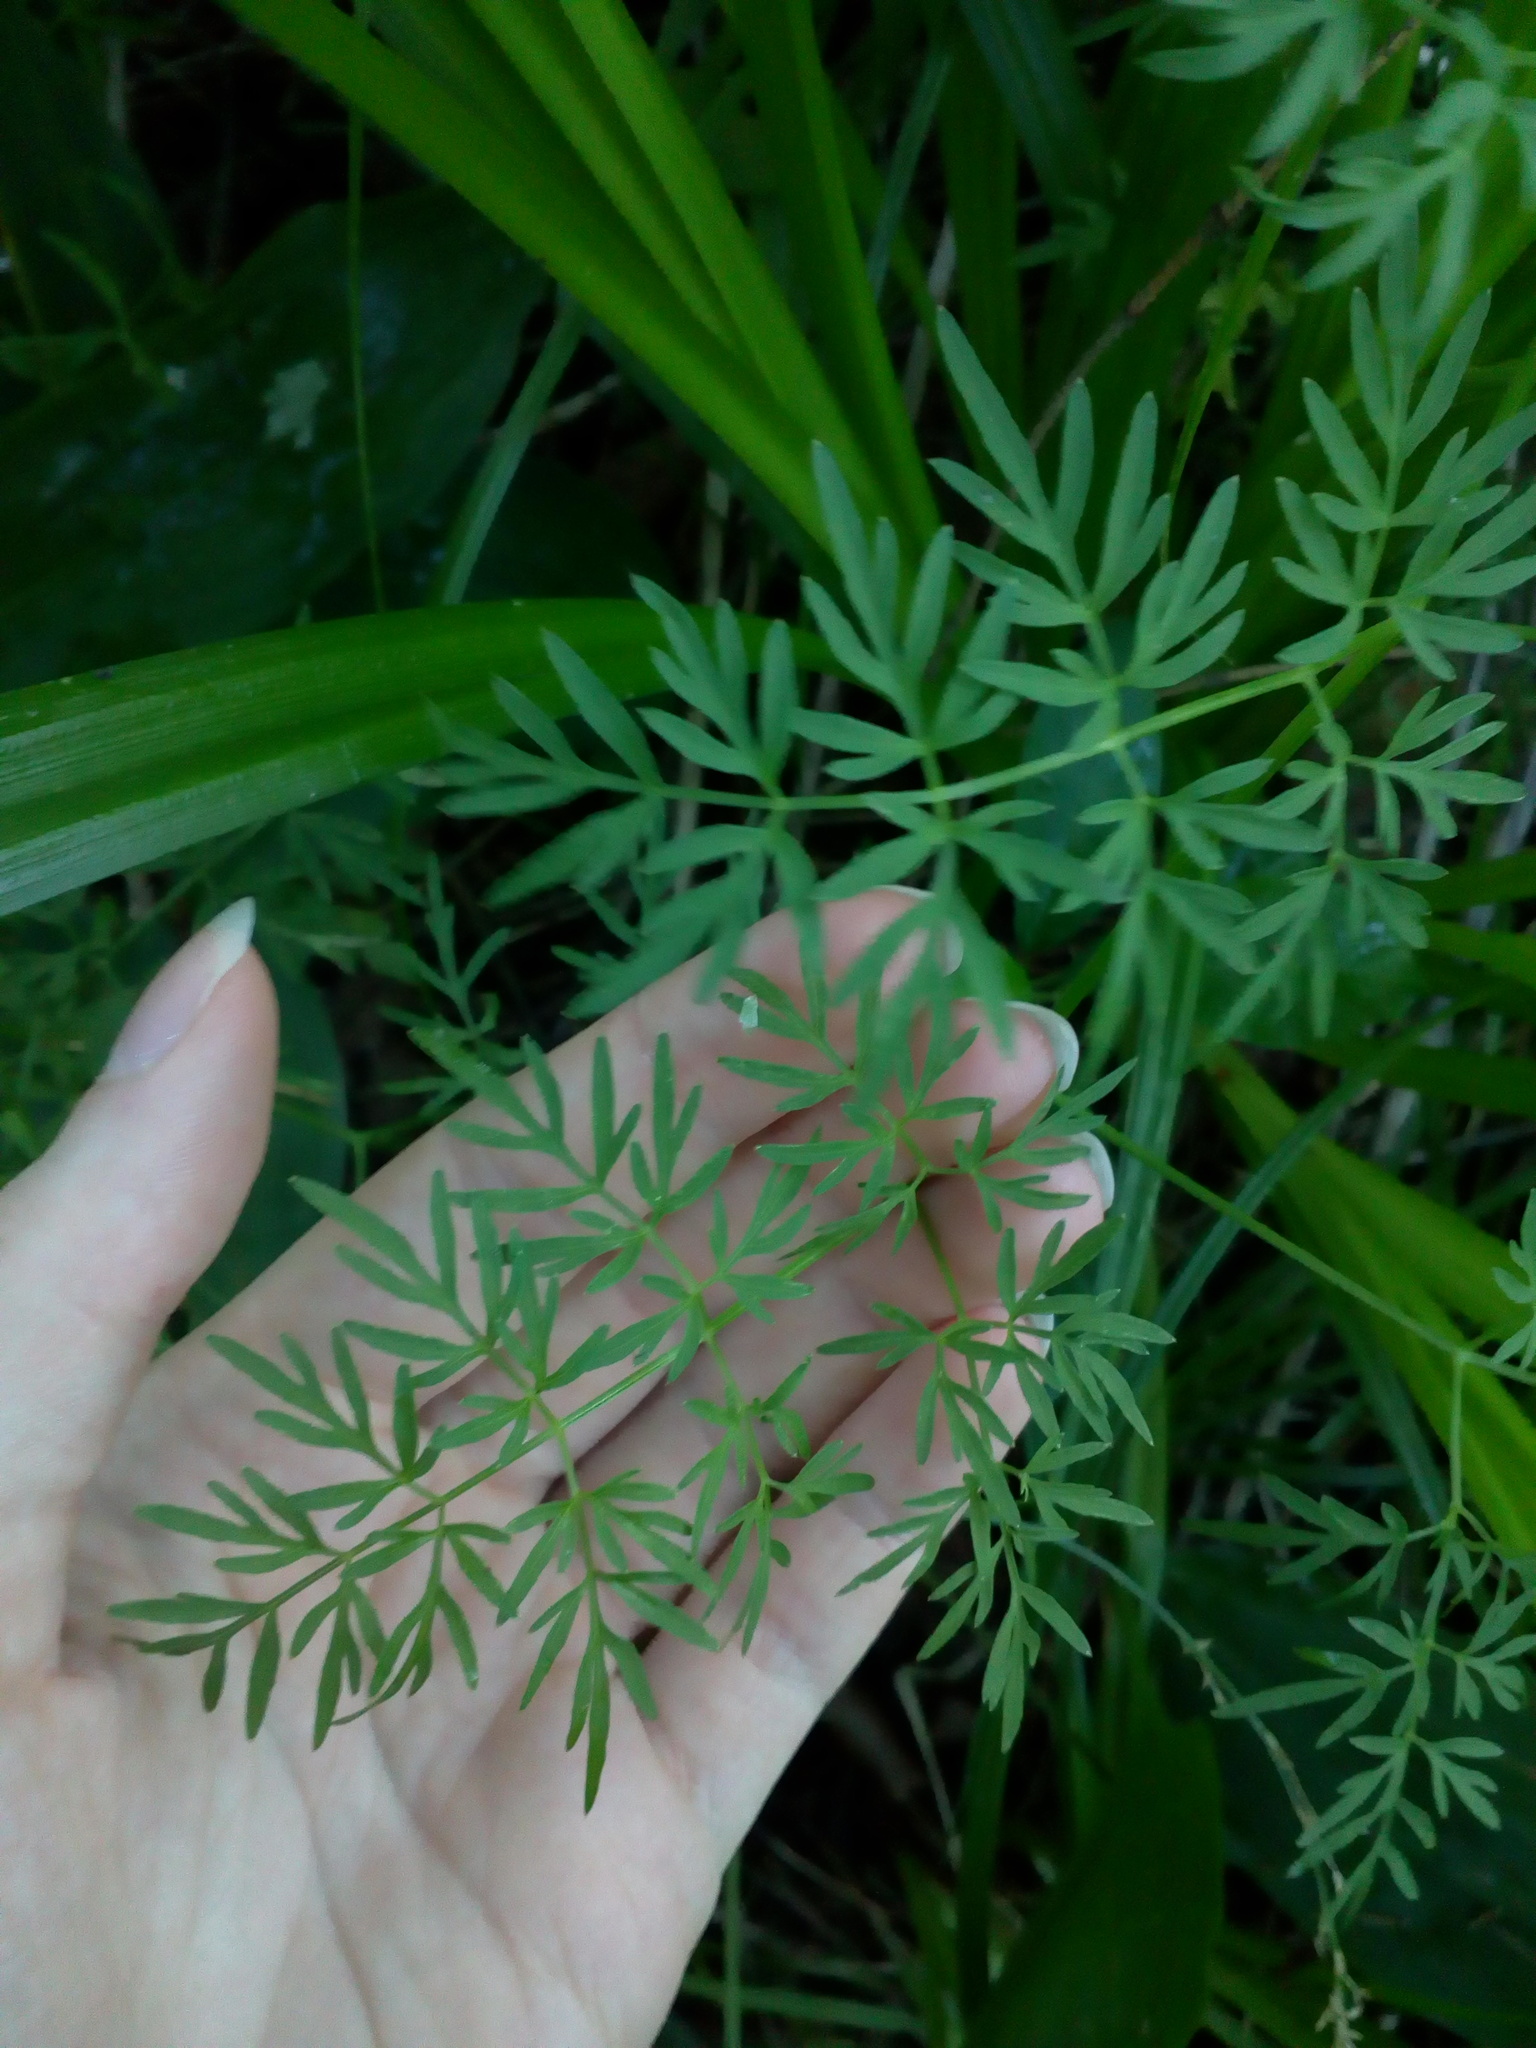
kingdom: Plantae
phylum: Tracheophyta
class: Magnoliopsida
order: Apiales
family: Apiaceae
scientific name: Apiaceae
